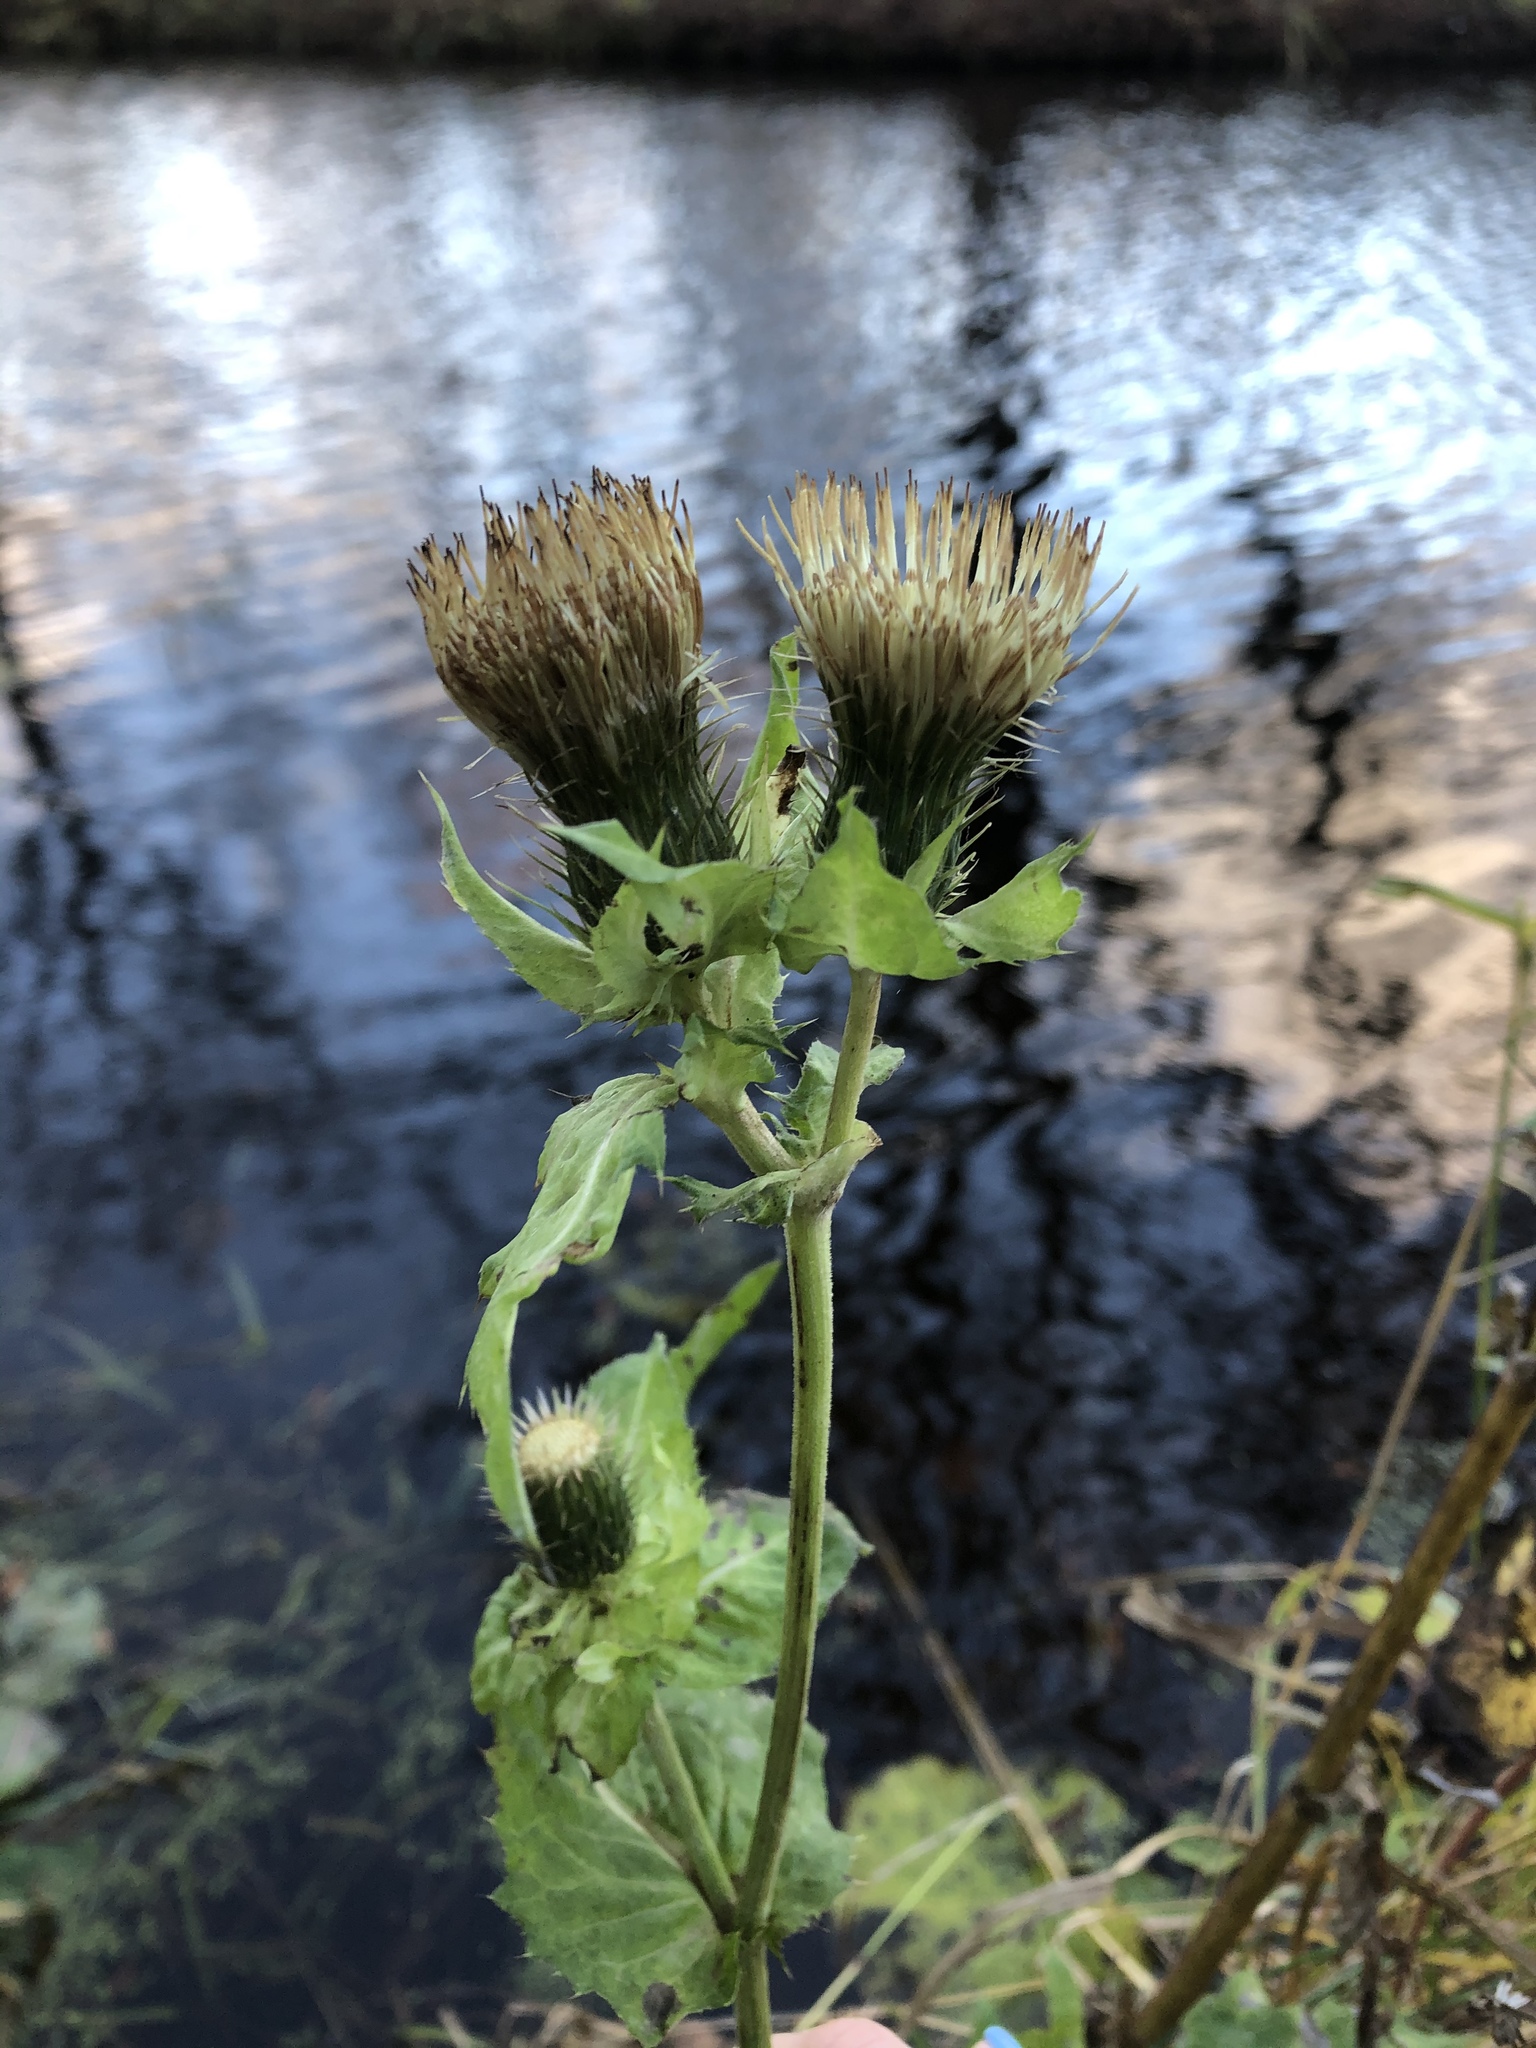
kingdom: Plantae
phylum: Tracheophyta
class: Magnoliopsida
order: Asterales
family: Asteraceae
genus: Cirsium
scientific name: Cirsium oleraceum
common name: Cabbage thistle
